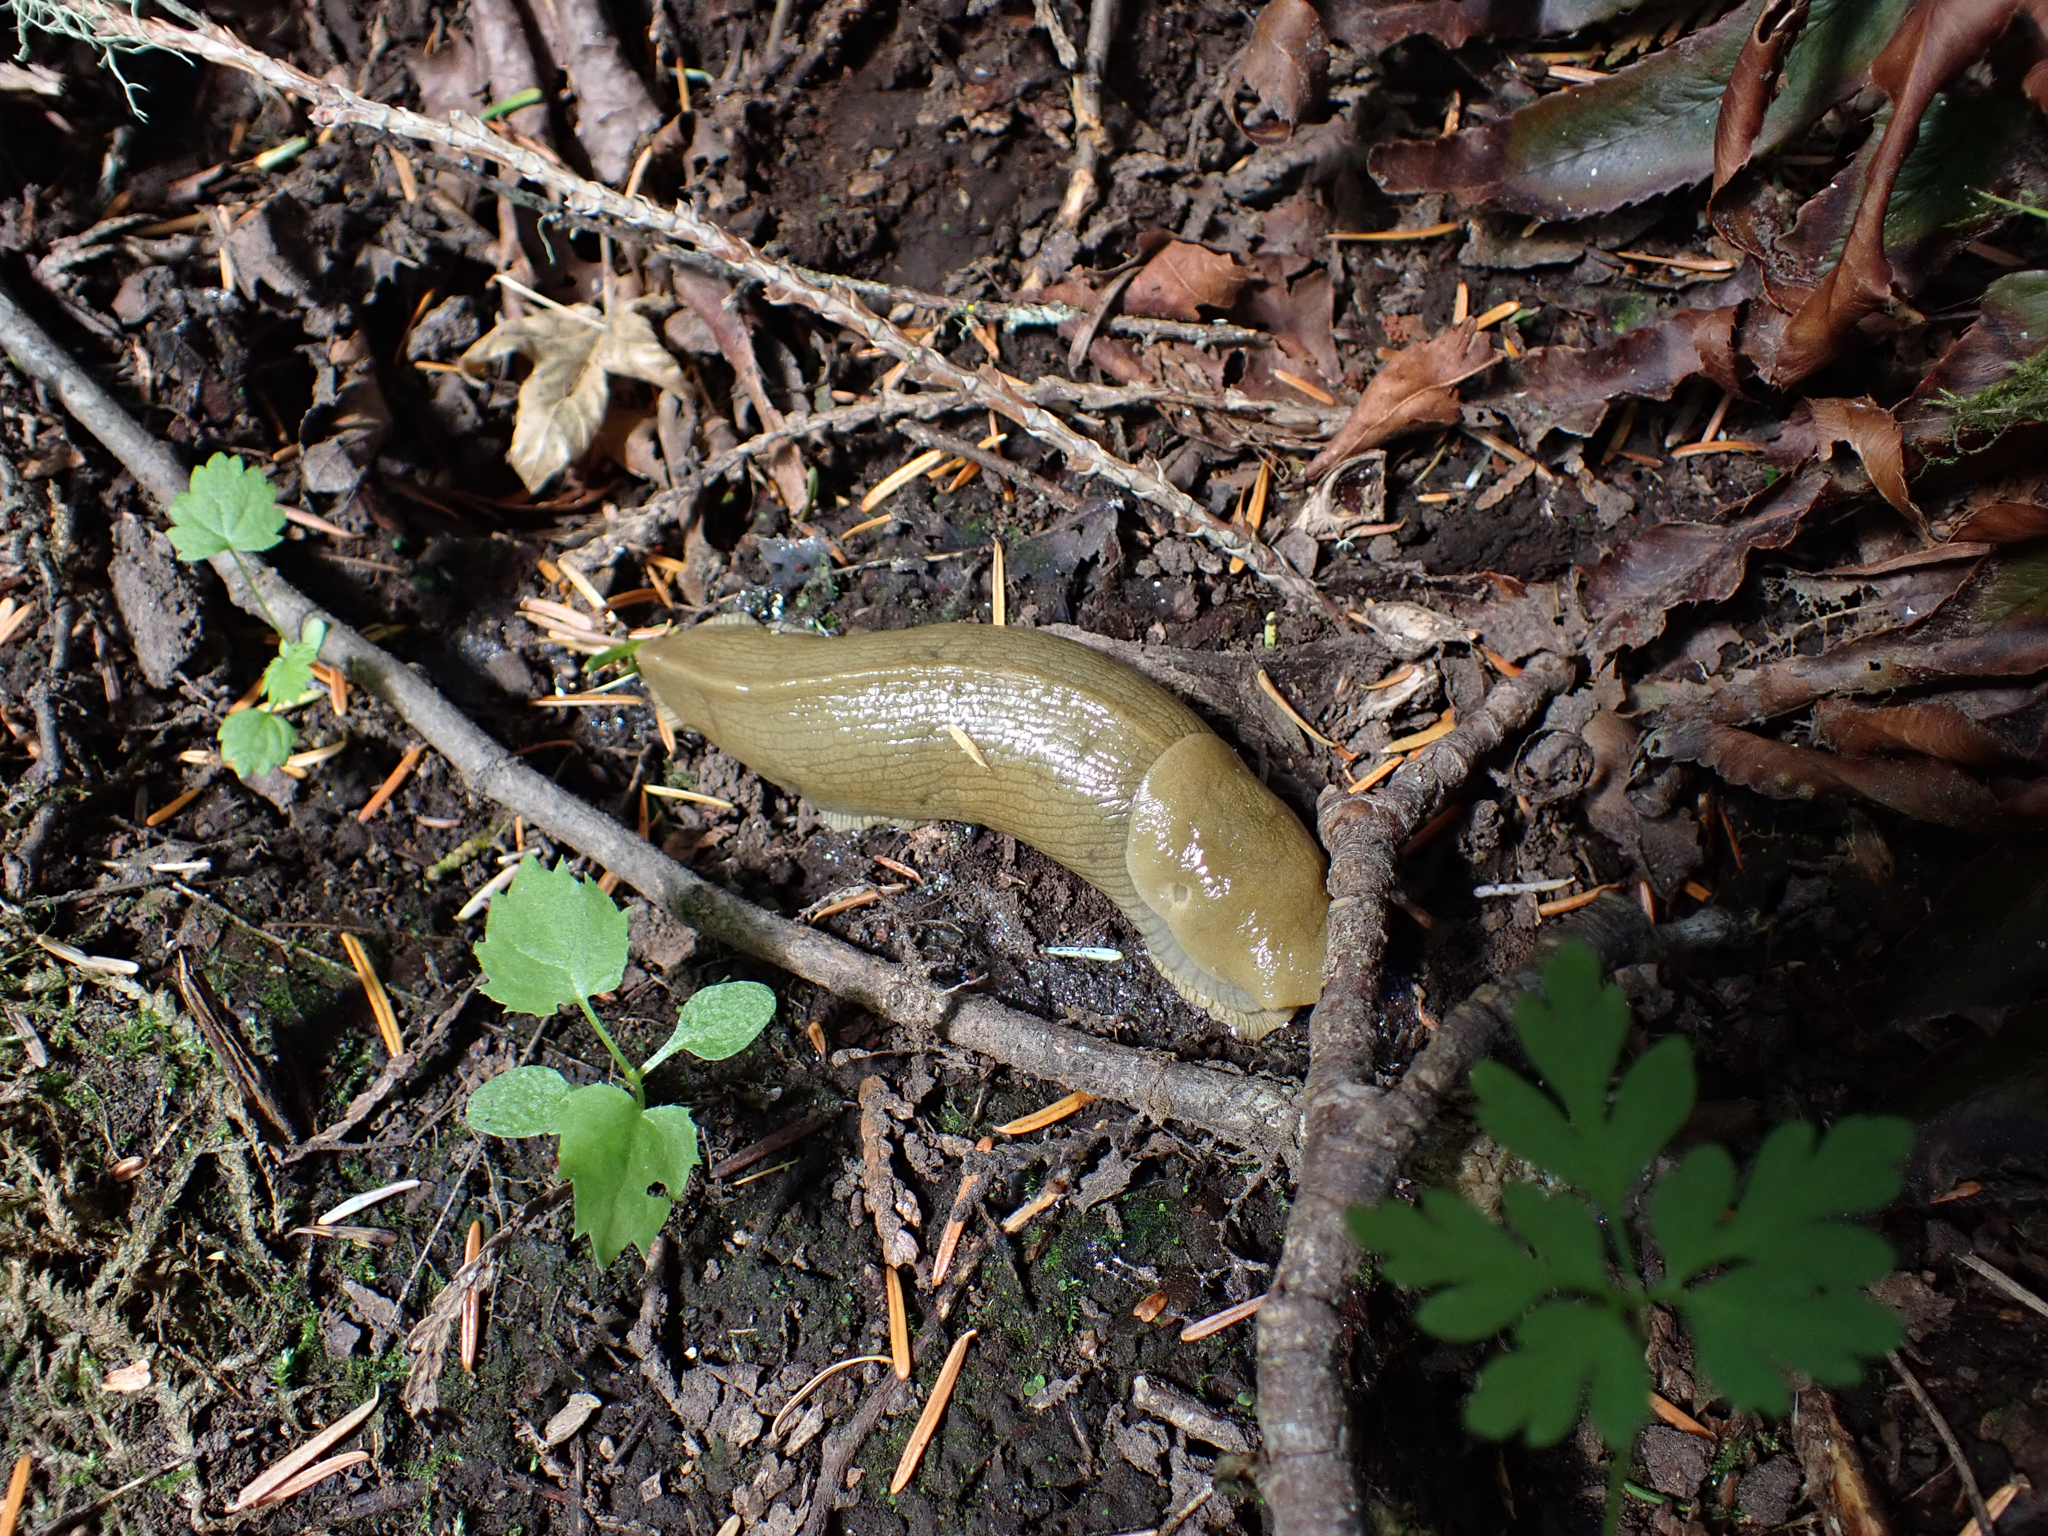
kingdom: Animalia
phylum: Mollusca
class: Gastropoda
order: Stylommatophora
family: Ariolimacidae
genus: Ariolimax
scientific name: Ariolimax columbianus
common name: Pacific banana slug
